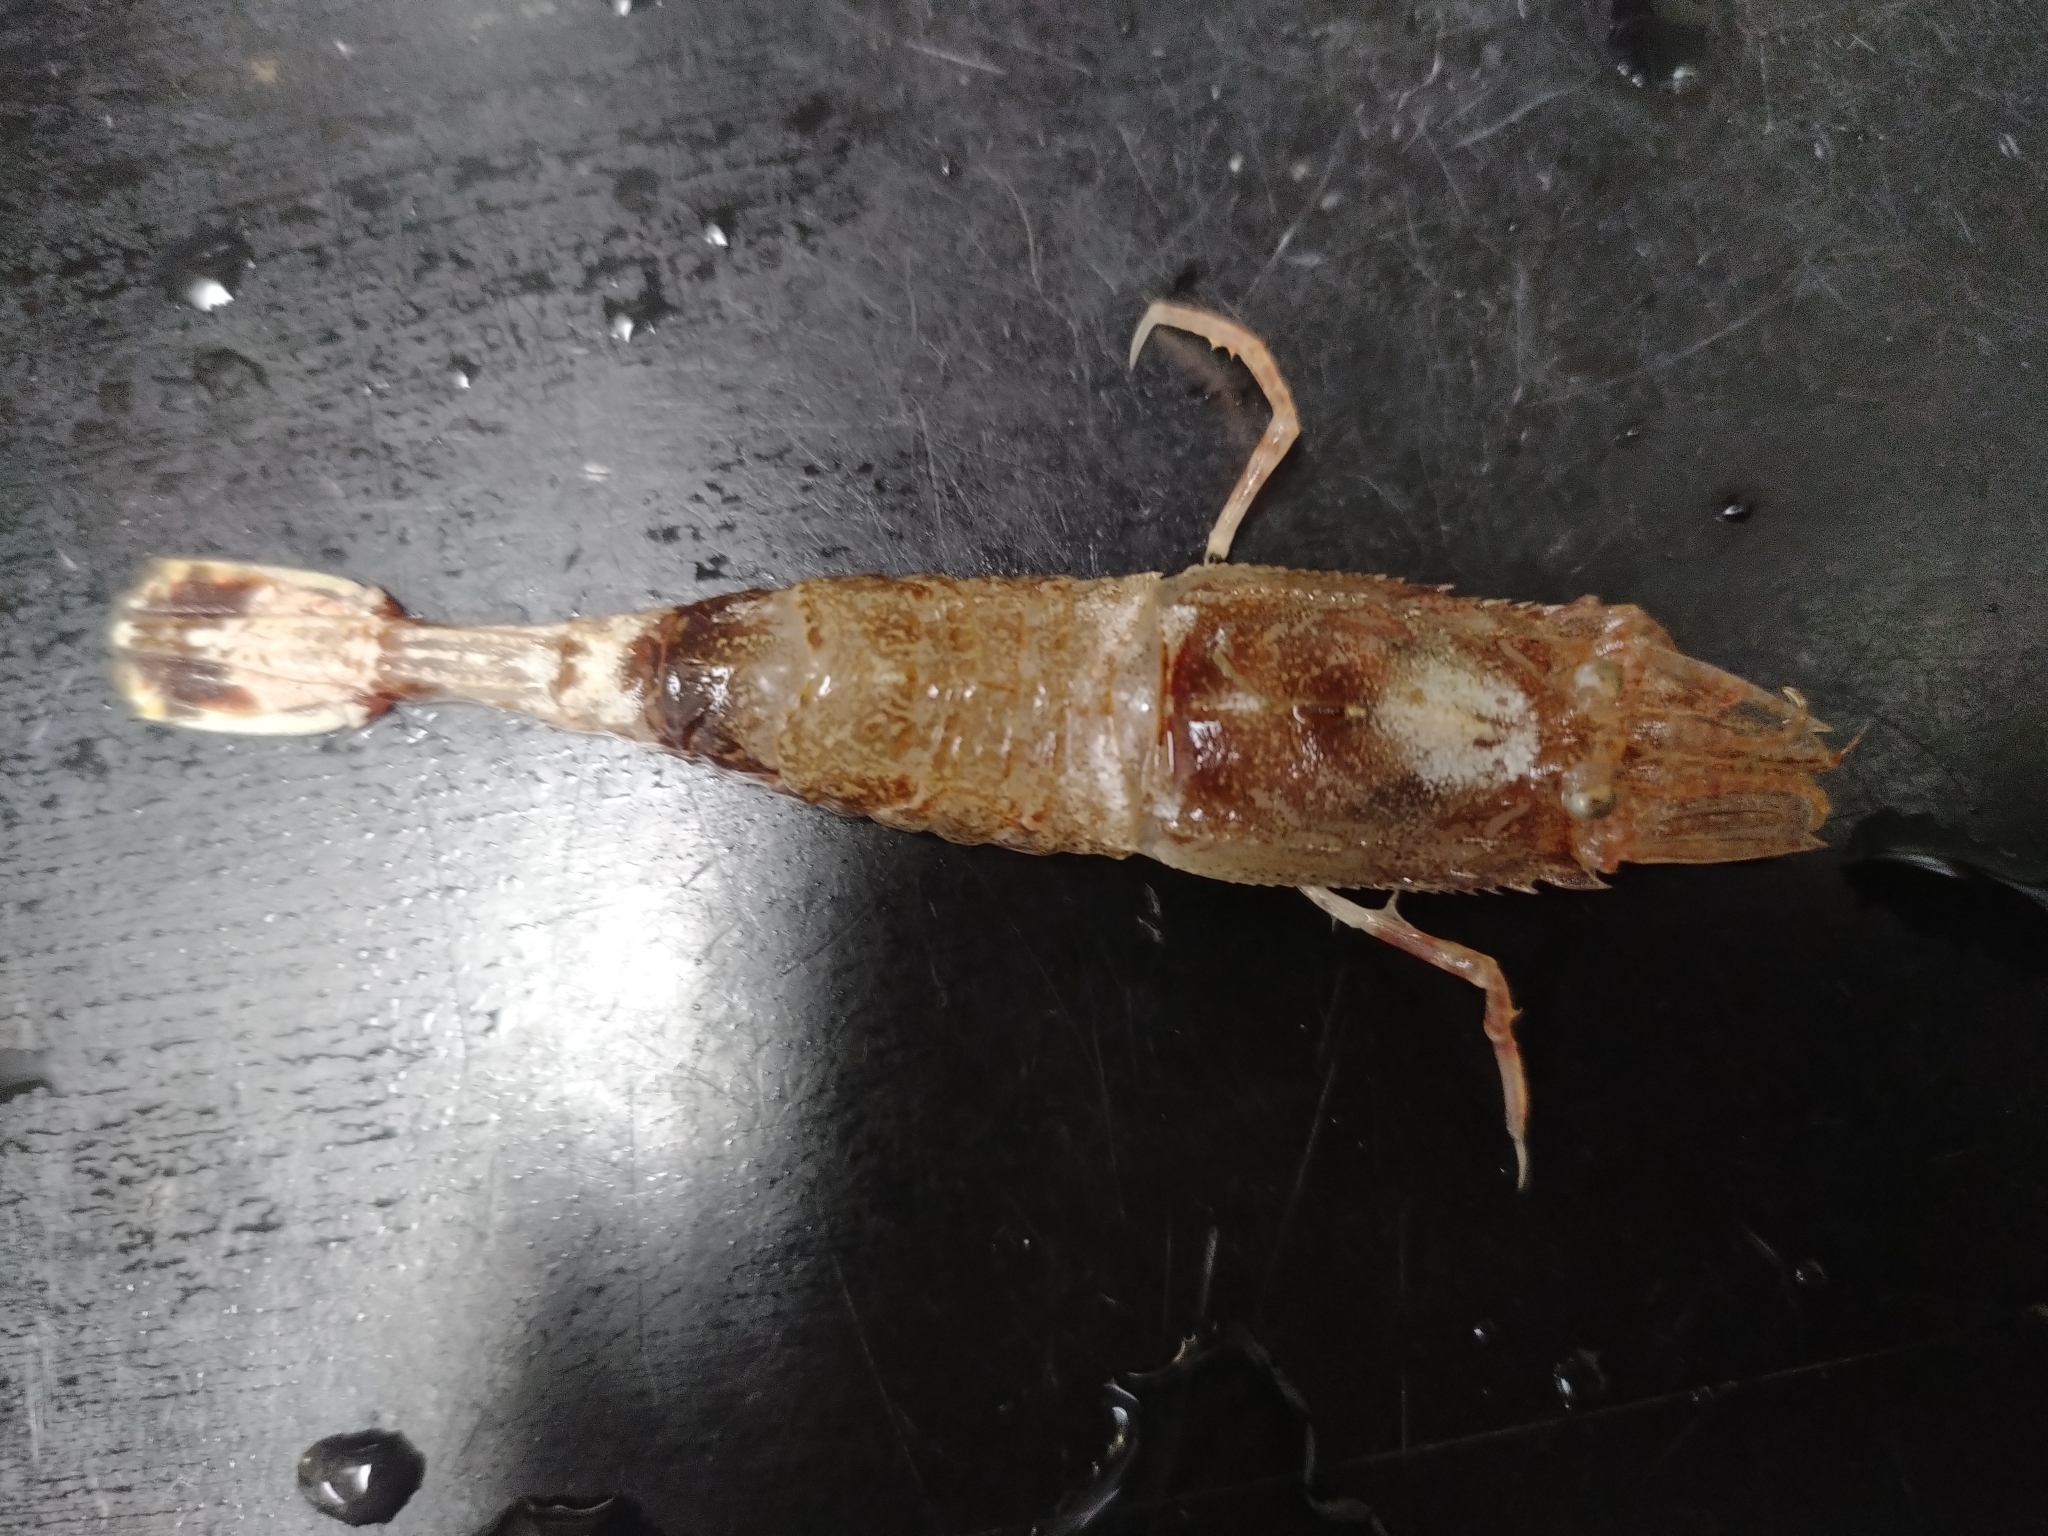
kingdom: Animalia
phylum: Arthropoda
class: Malacostraca
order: Decapoda
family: Crangonidae
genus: Sabinea
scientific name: Sabinea septemcarinata
